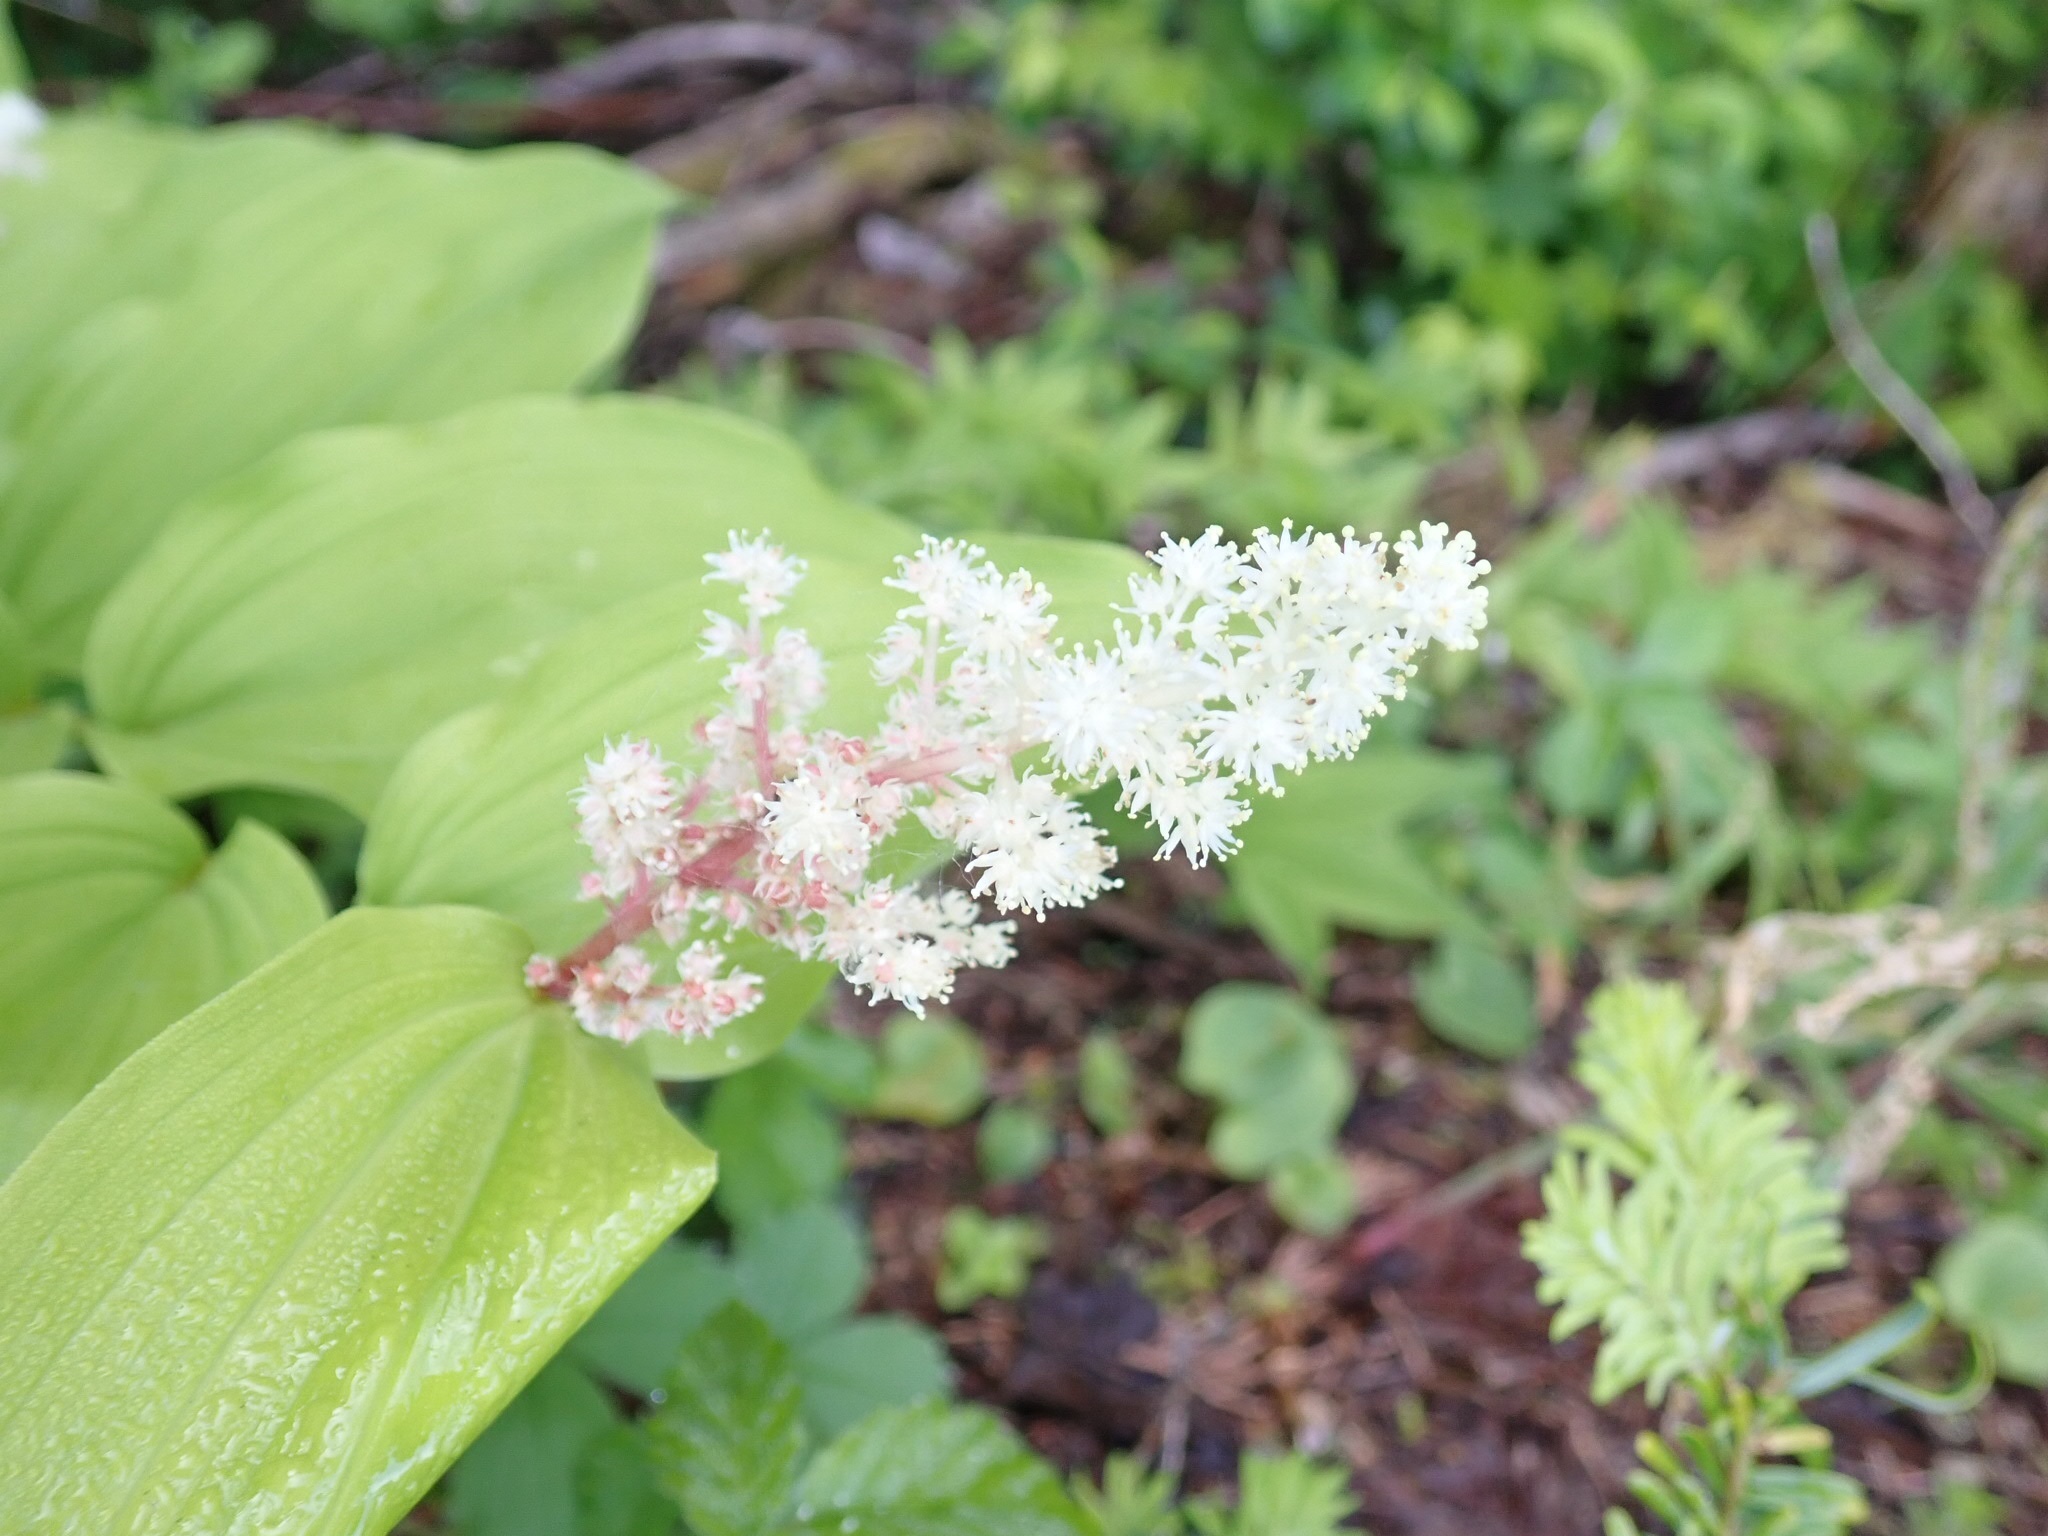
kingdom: Plantae
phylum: Tracheophyta
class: Liliopsida
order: Asparagales
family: Asparagaceae
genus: Maianthemum
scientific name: Maianthemum racemosum
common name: False spikenard
